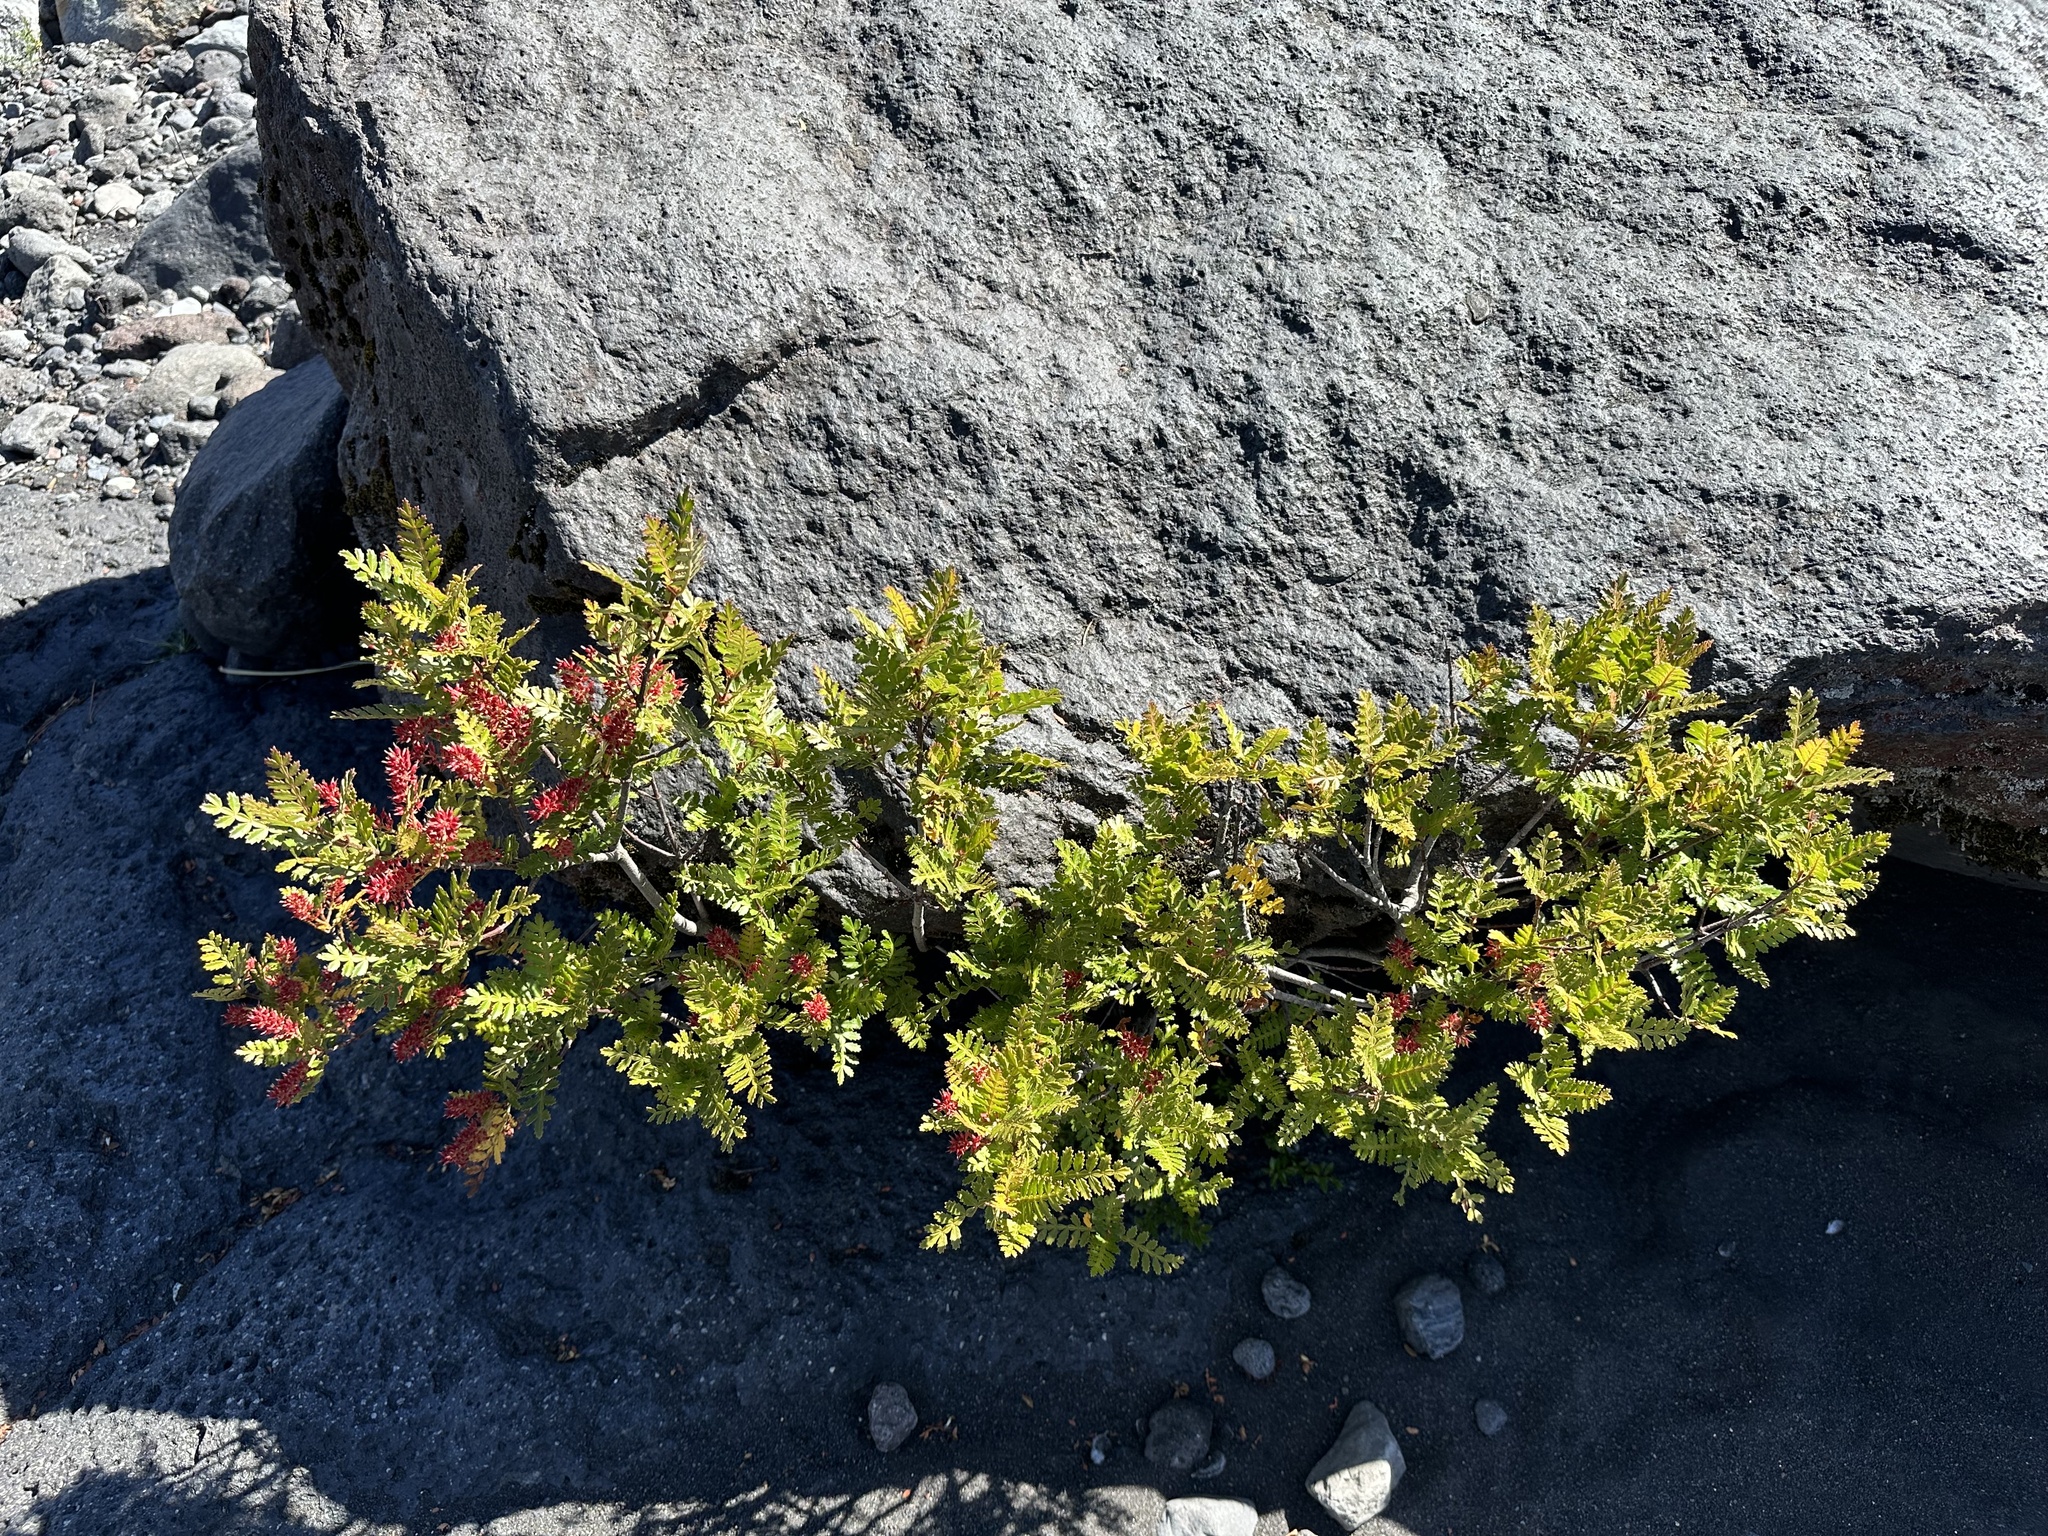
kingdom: Plantae
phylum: Tracheophyta
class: Magnoliopsida
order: Oxalidales
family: Cunoniaceae
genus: Weinmannia
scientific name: Weinmannia trichosperma
